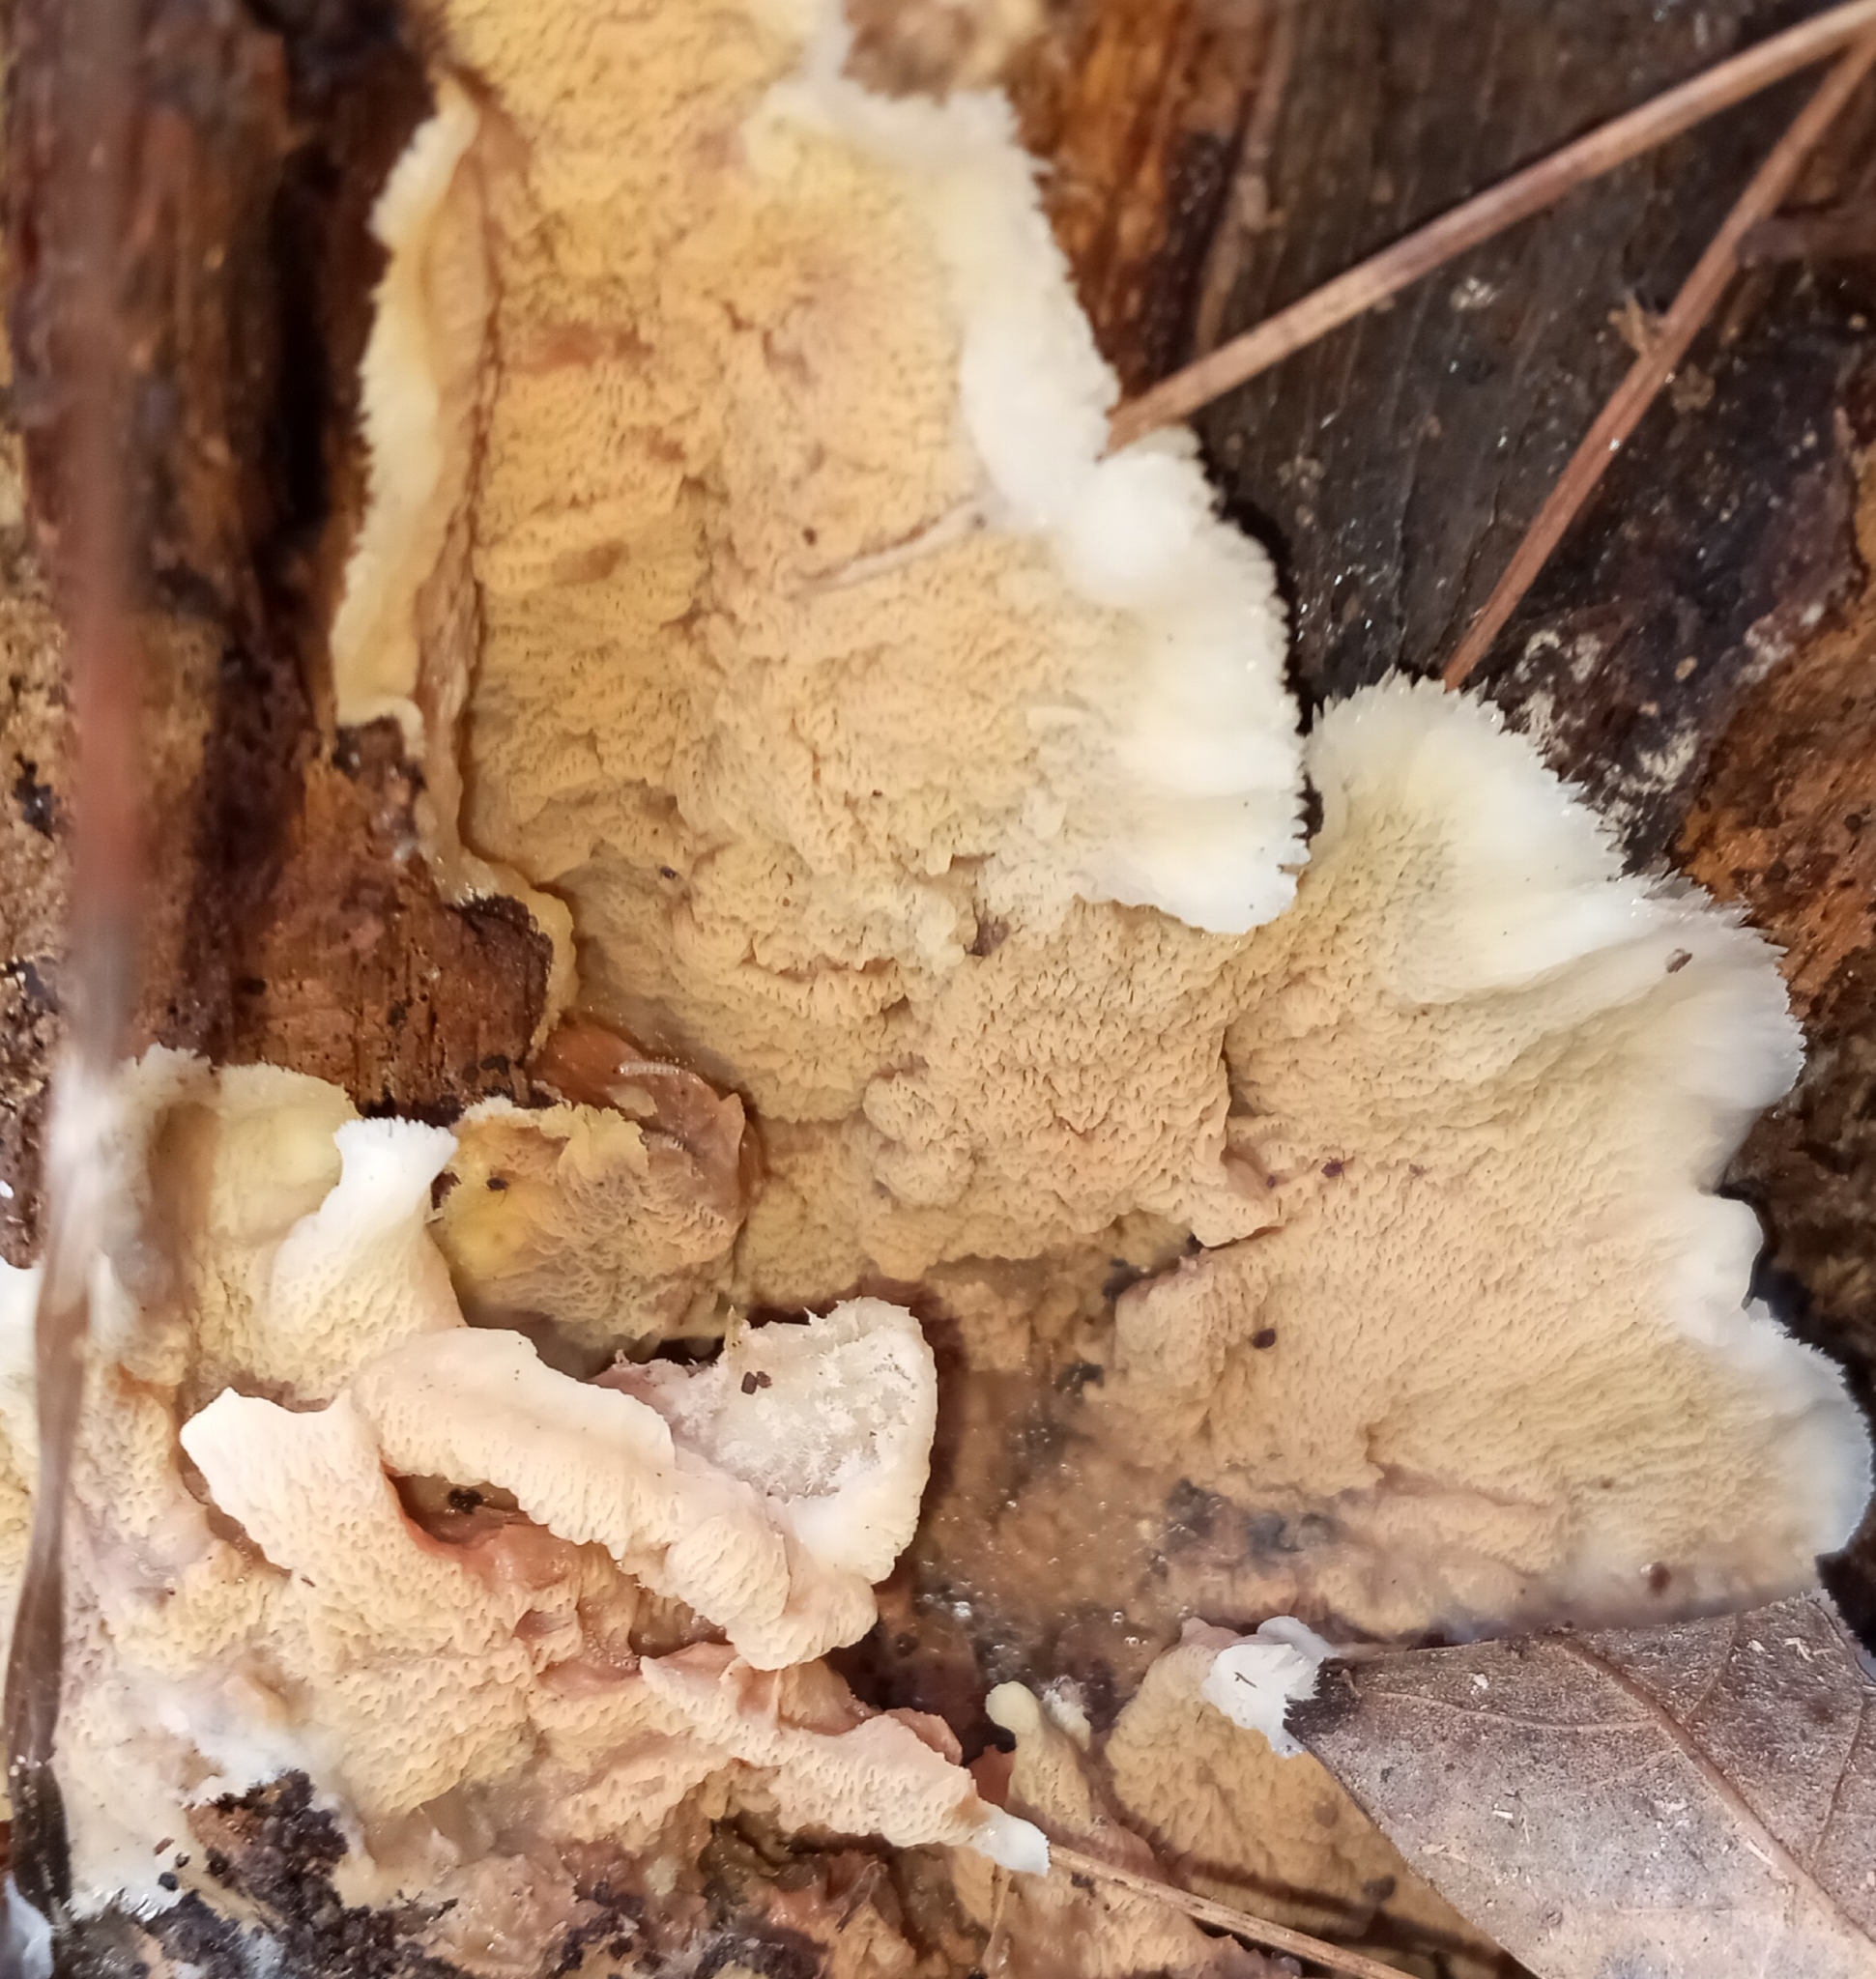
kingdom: Fungi
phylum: Basidiomycota
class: Agaricomycetes
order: Polyporales
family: Meruliaceae
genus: Phlebia
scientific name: Phlebia tremellosa
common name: Jelly rot
